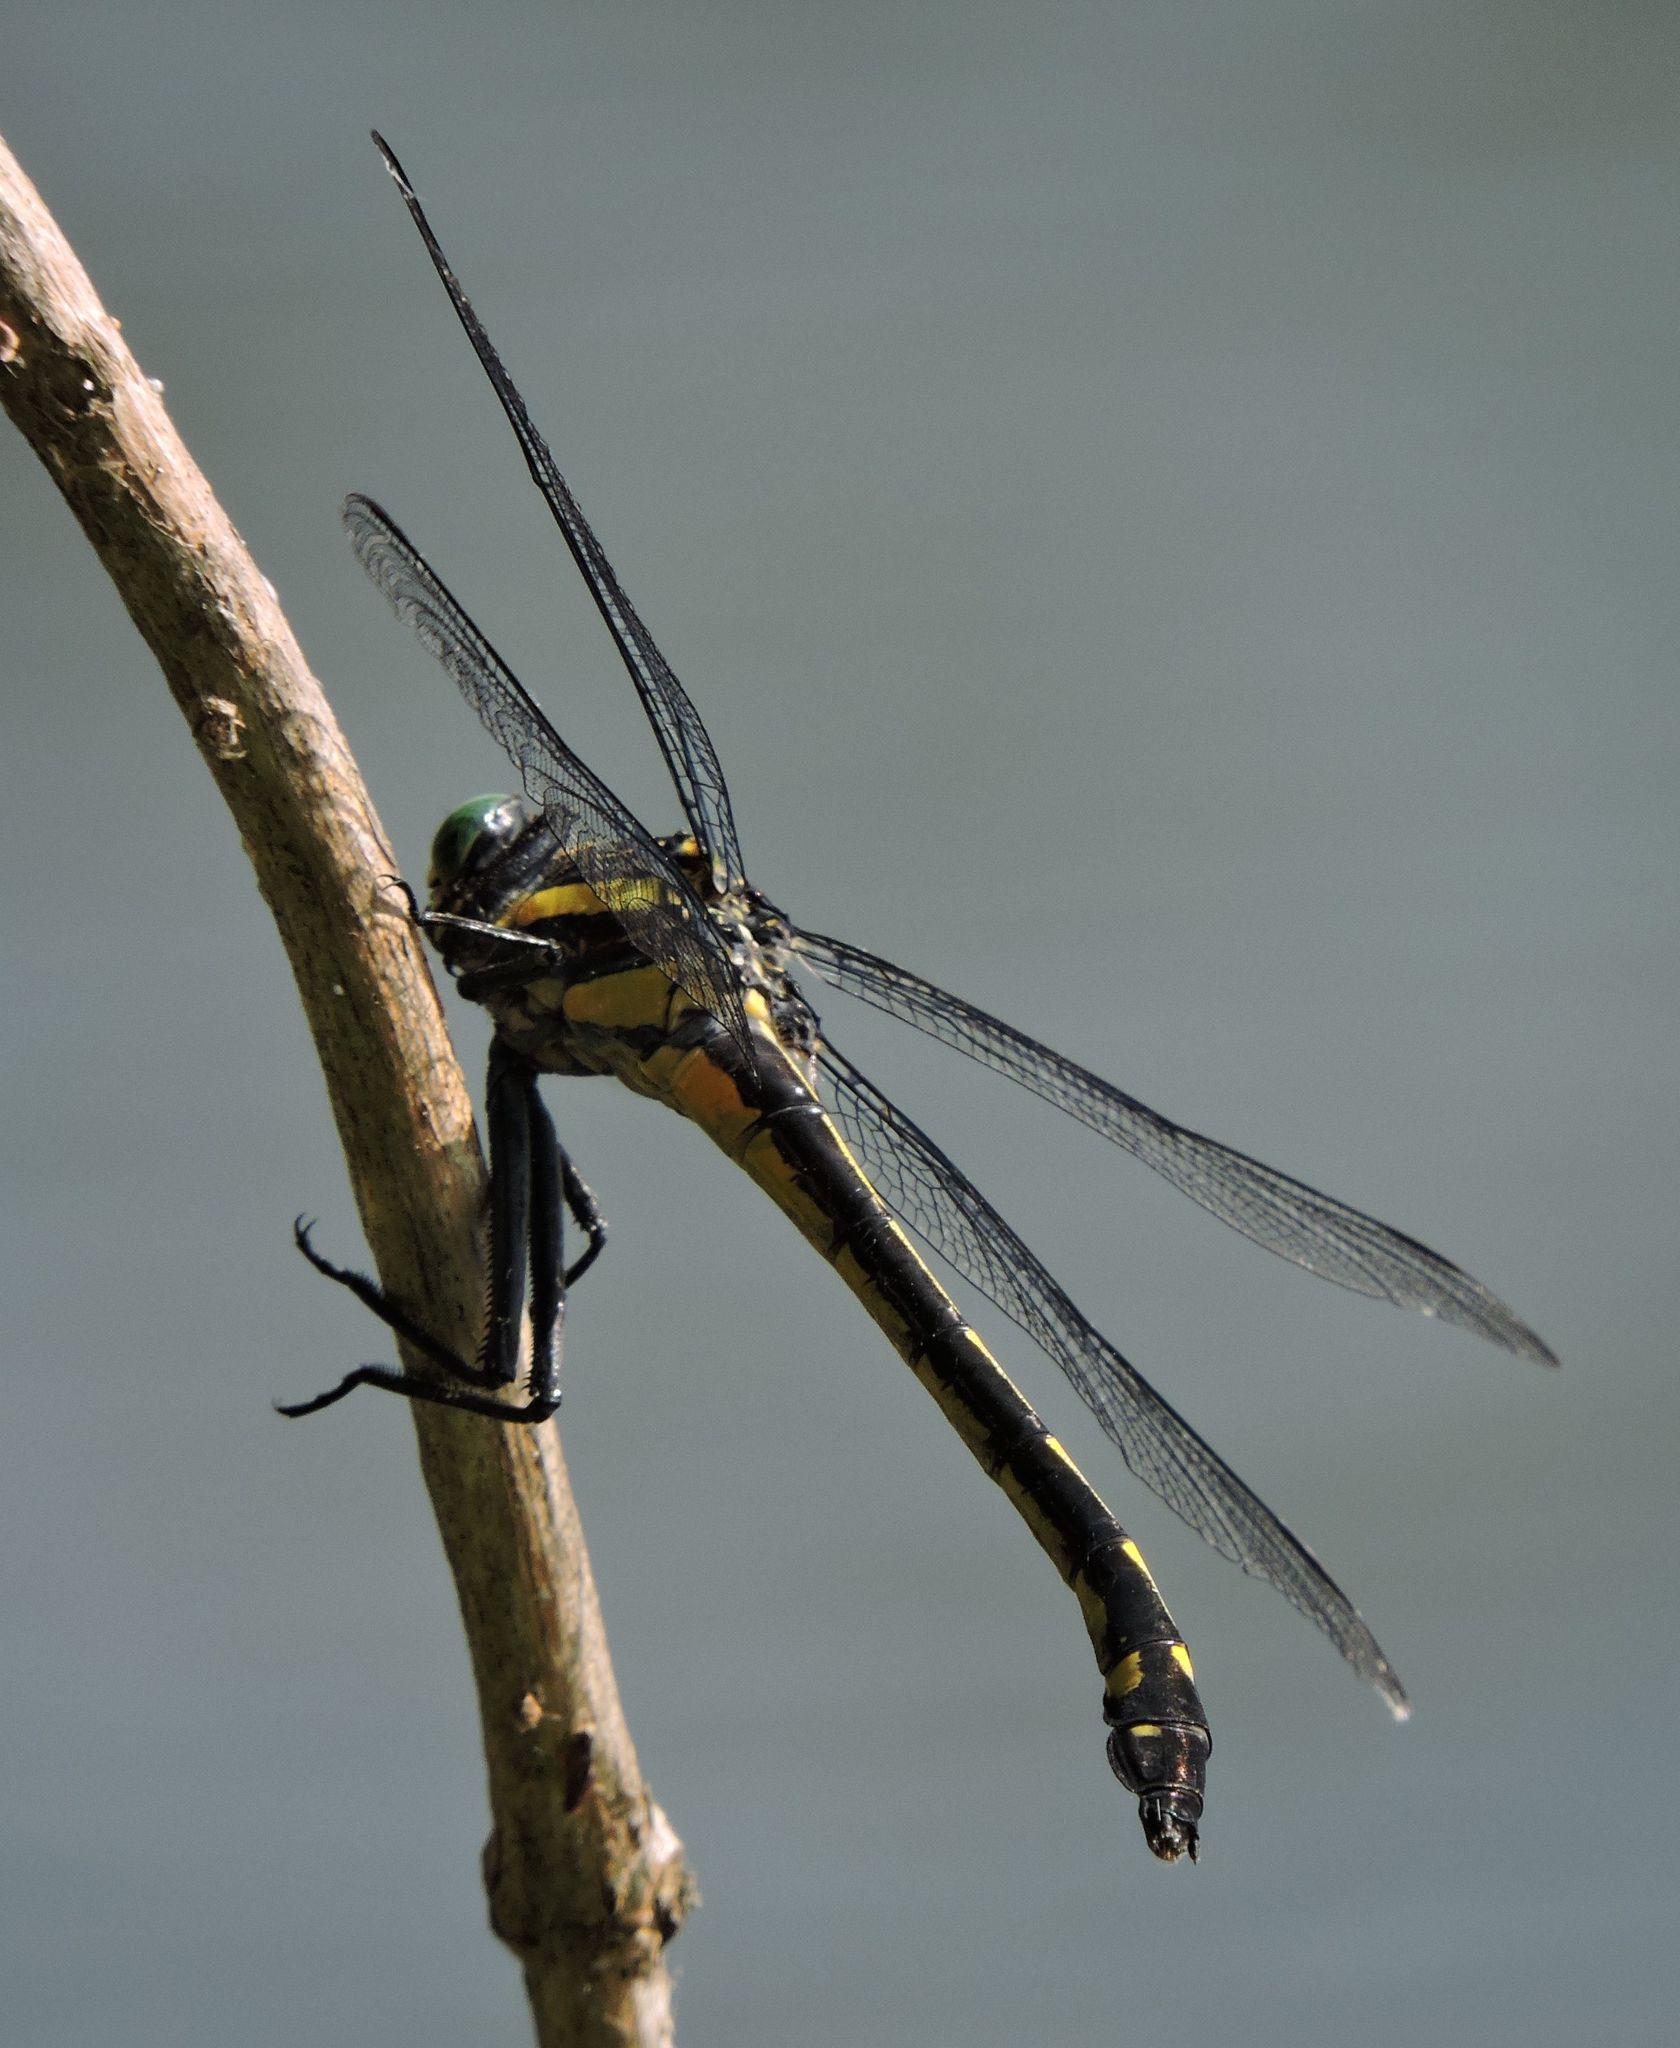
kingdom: Animalia
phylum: Arthropoda
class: Insecta
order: Odonata
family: Gomphidae
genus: Hagenius
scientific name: Hagenius brevistylus
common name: Dragonhunter
